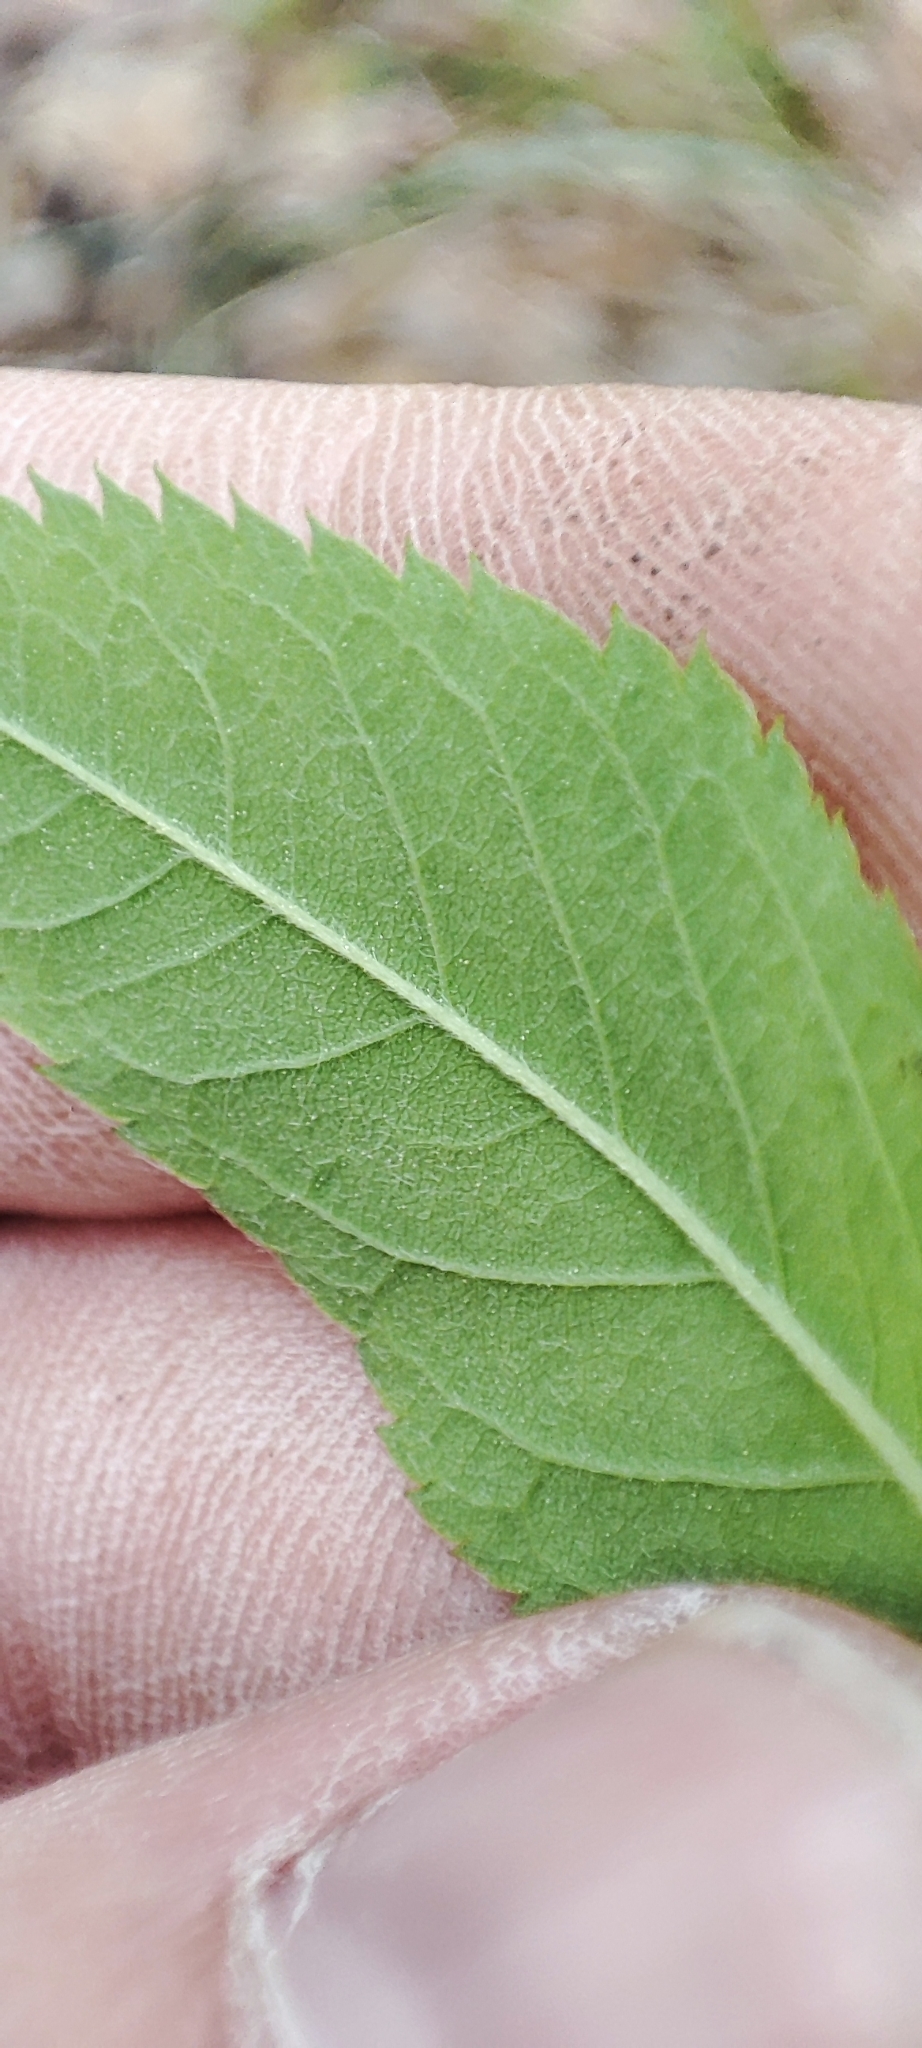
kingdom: Plantae
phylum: Tracheophyta
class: Magnoliopsida
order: Rosales
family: Rosaceae
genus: Rosa
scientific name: Rosa majalis
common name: Cinnamon rose
